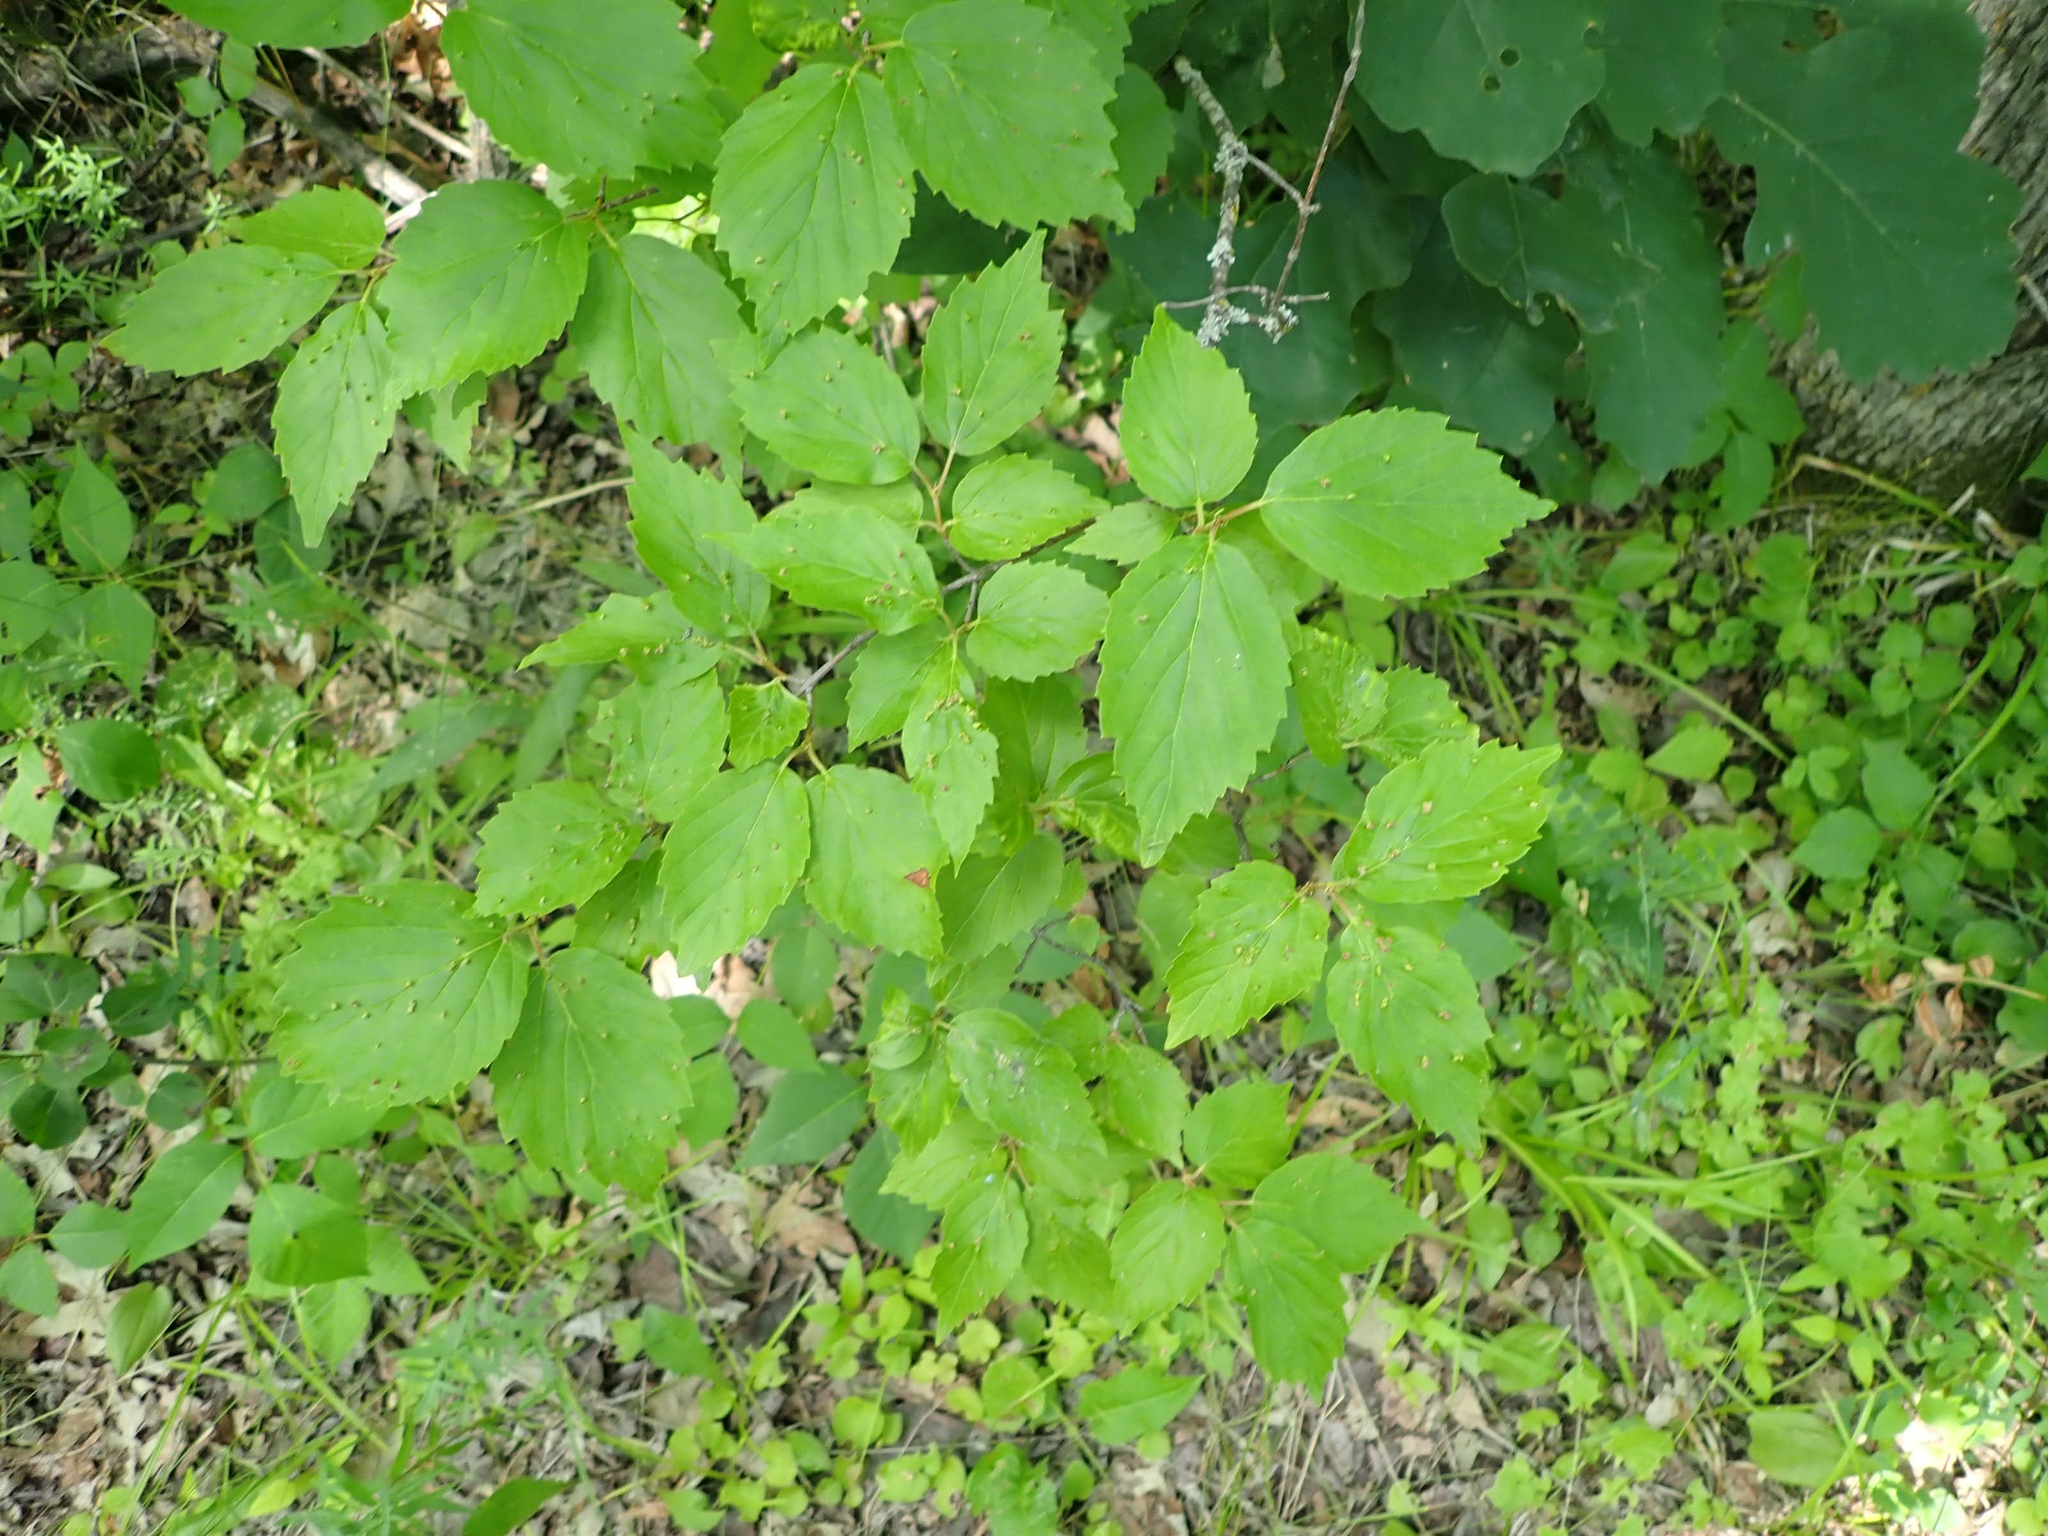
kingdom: Plantae
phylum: Tracheophyta
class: Magnoliopsida
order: Dipsacales
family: Viburnaceae
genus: Viburnum
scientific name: Viburnum rafinesqueanum
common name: Downy arrow-wood
